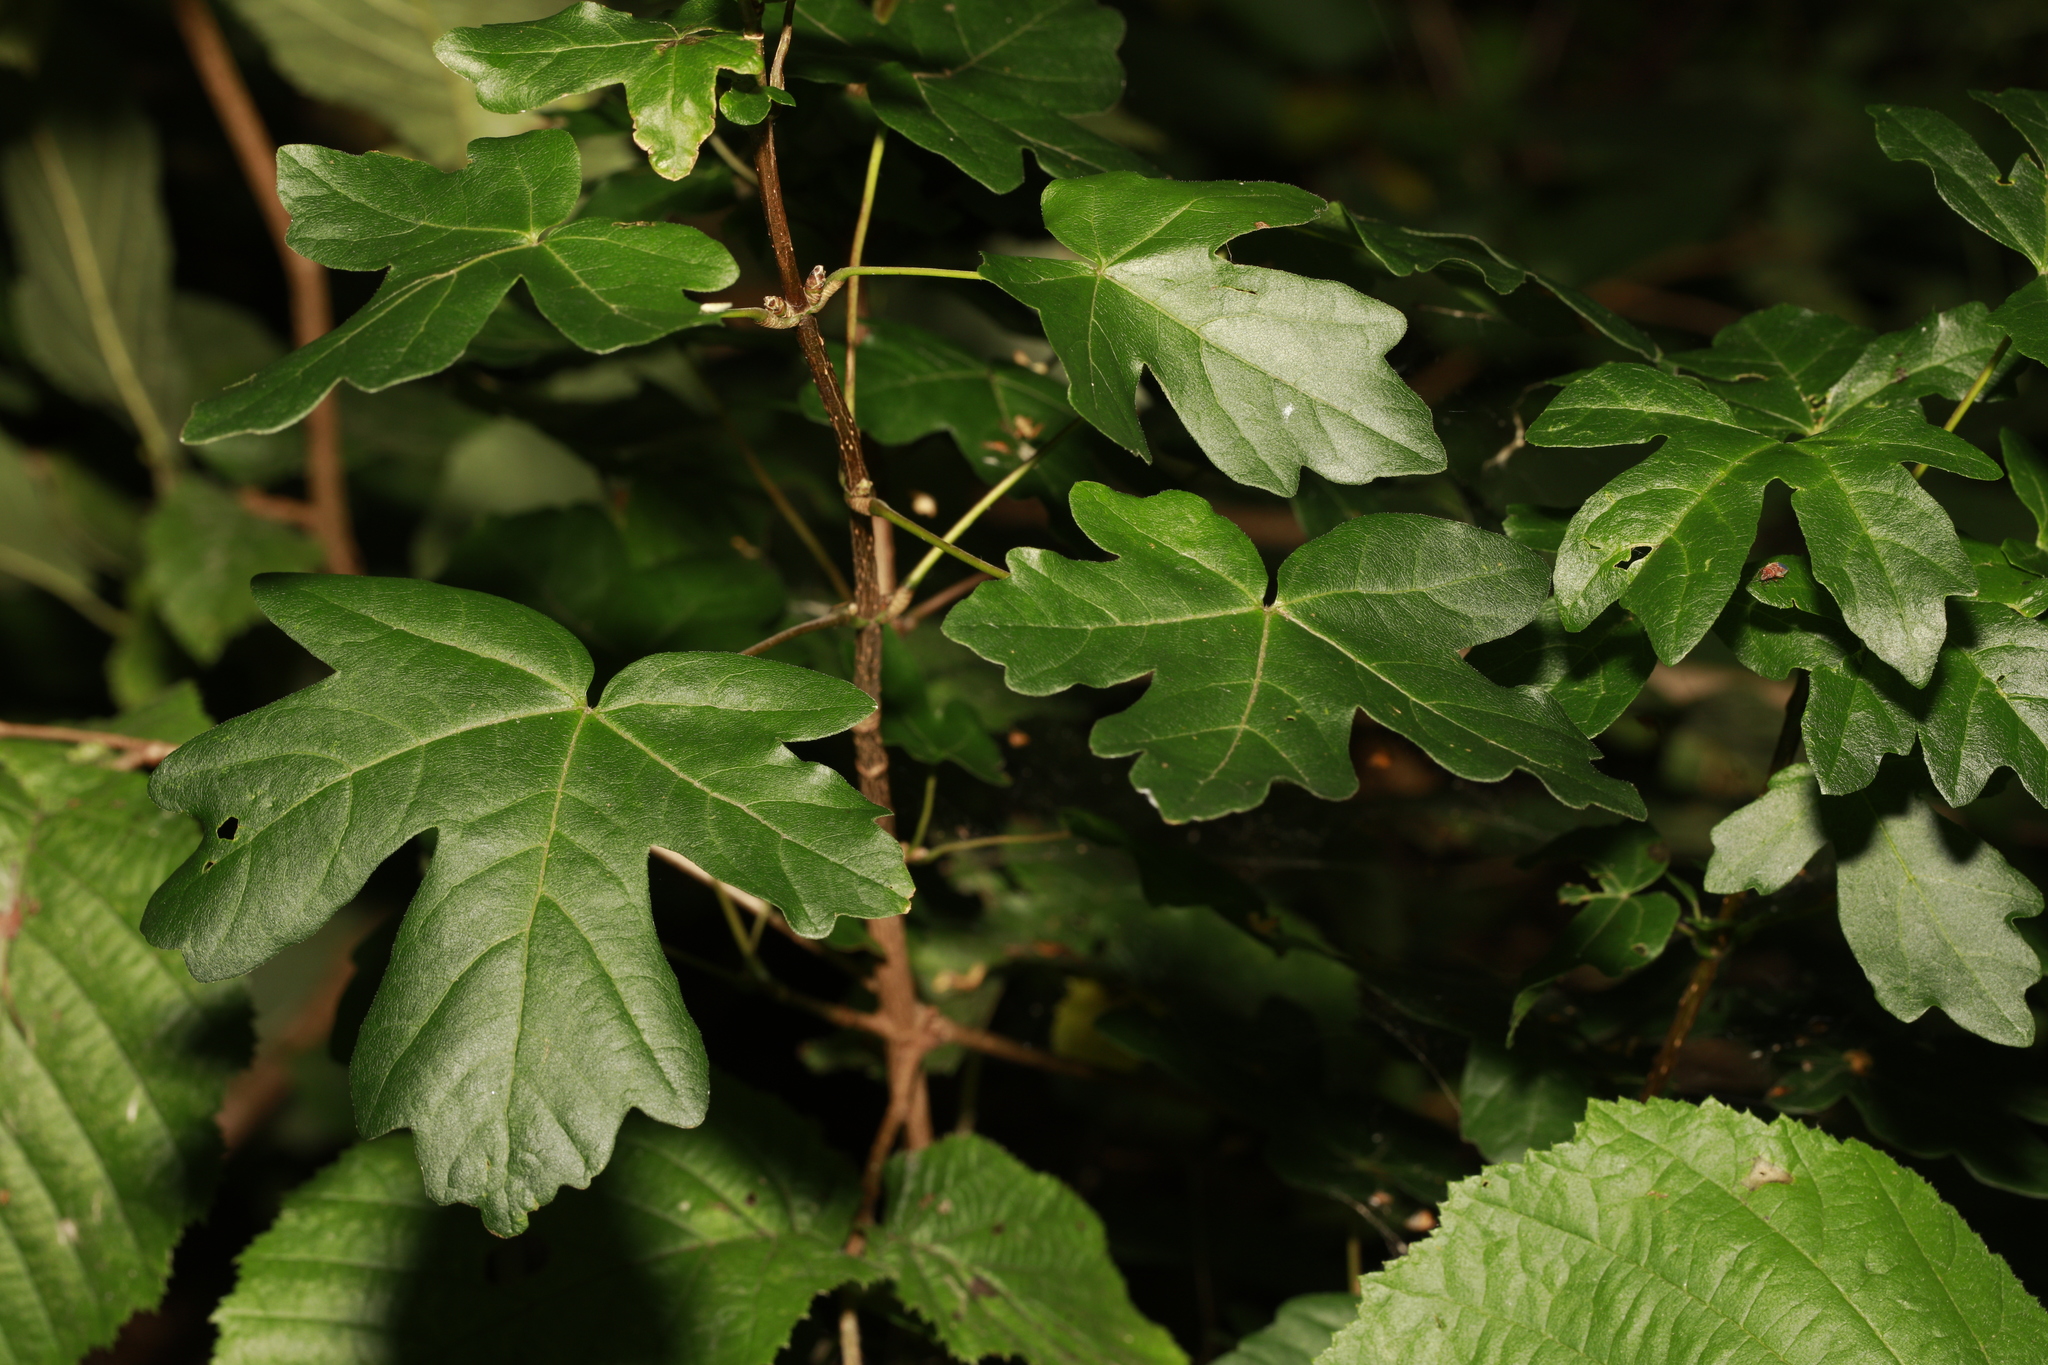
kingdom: Plantae
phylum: Tracheophyta
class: Magnoliopsida
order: Sapindales
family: Sapindaceae
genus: Acer
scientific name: Acer campestre
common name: Field maple
